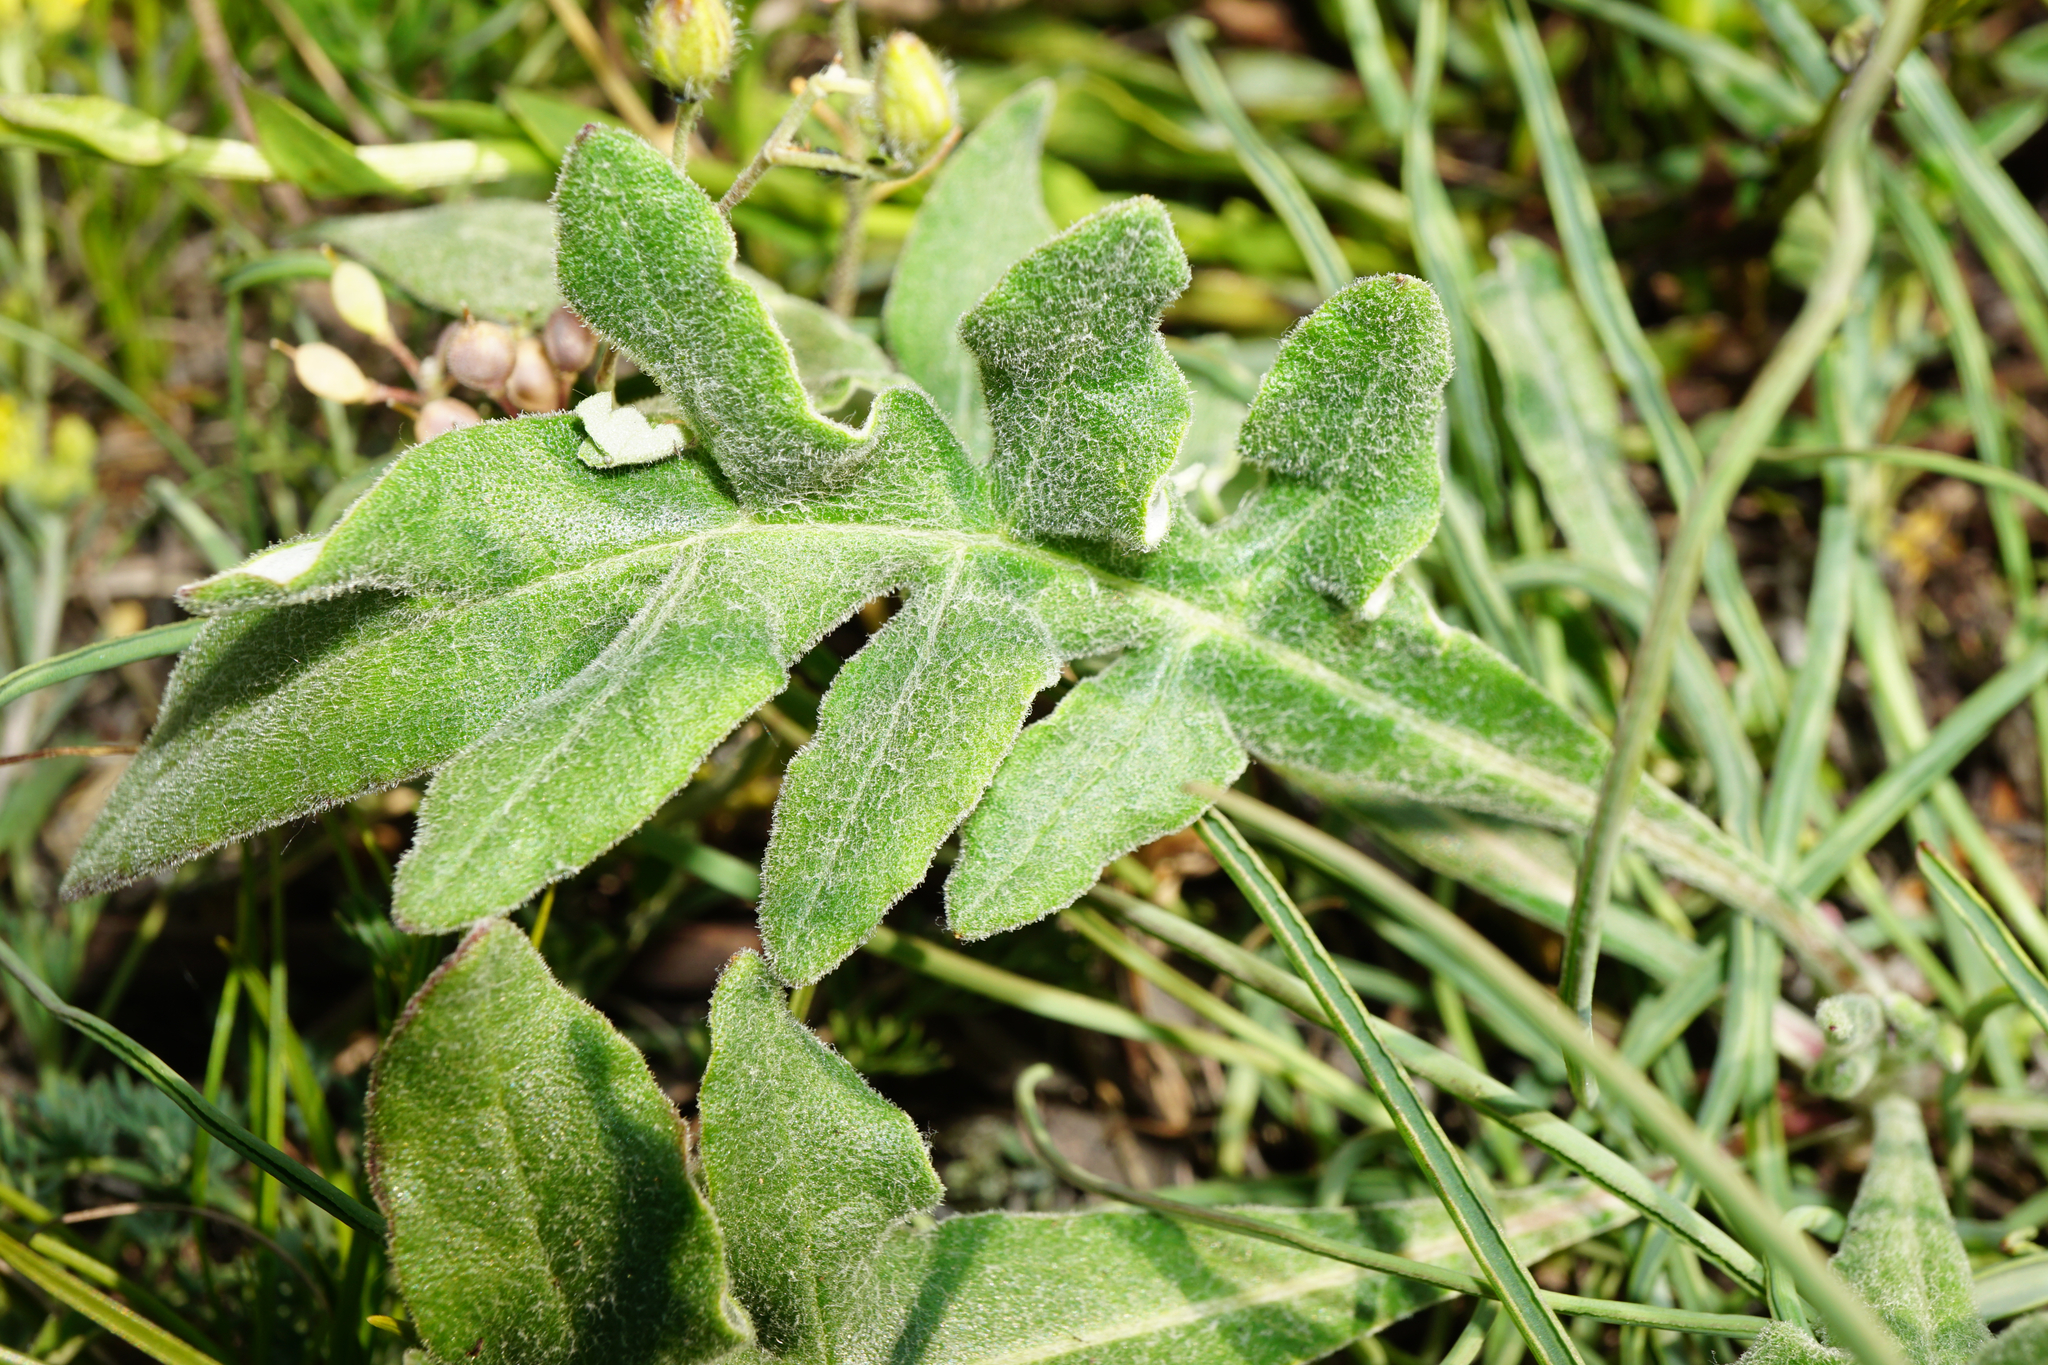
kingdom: Plantae
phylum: Tracheophyta
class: Magnoliopsida
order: Asterales
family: Asteraceae
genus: Jurinea
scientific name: Jurinea mollis
